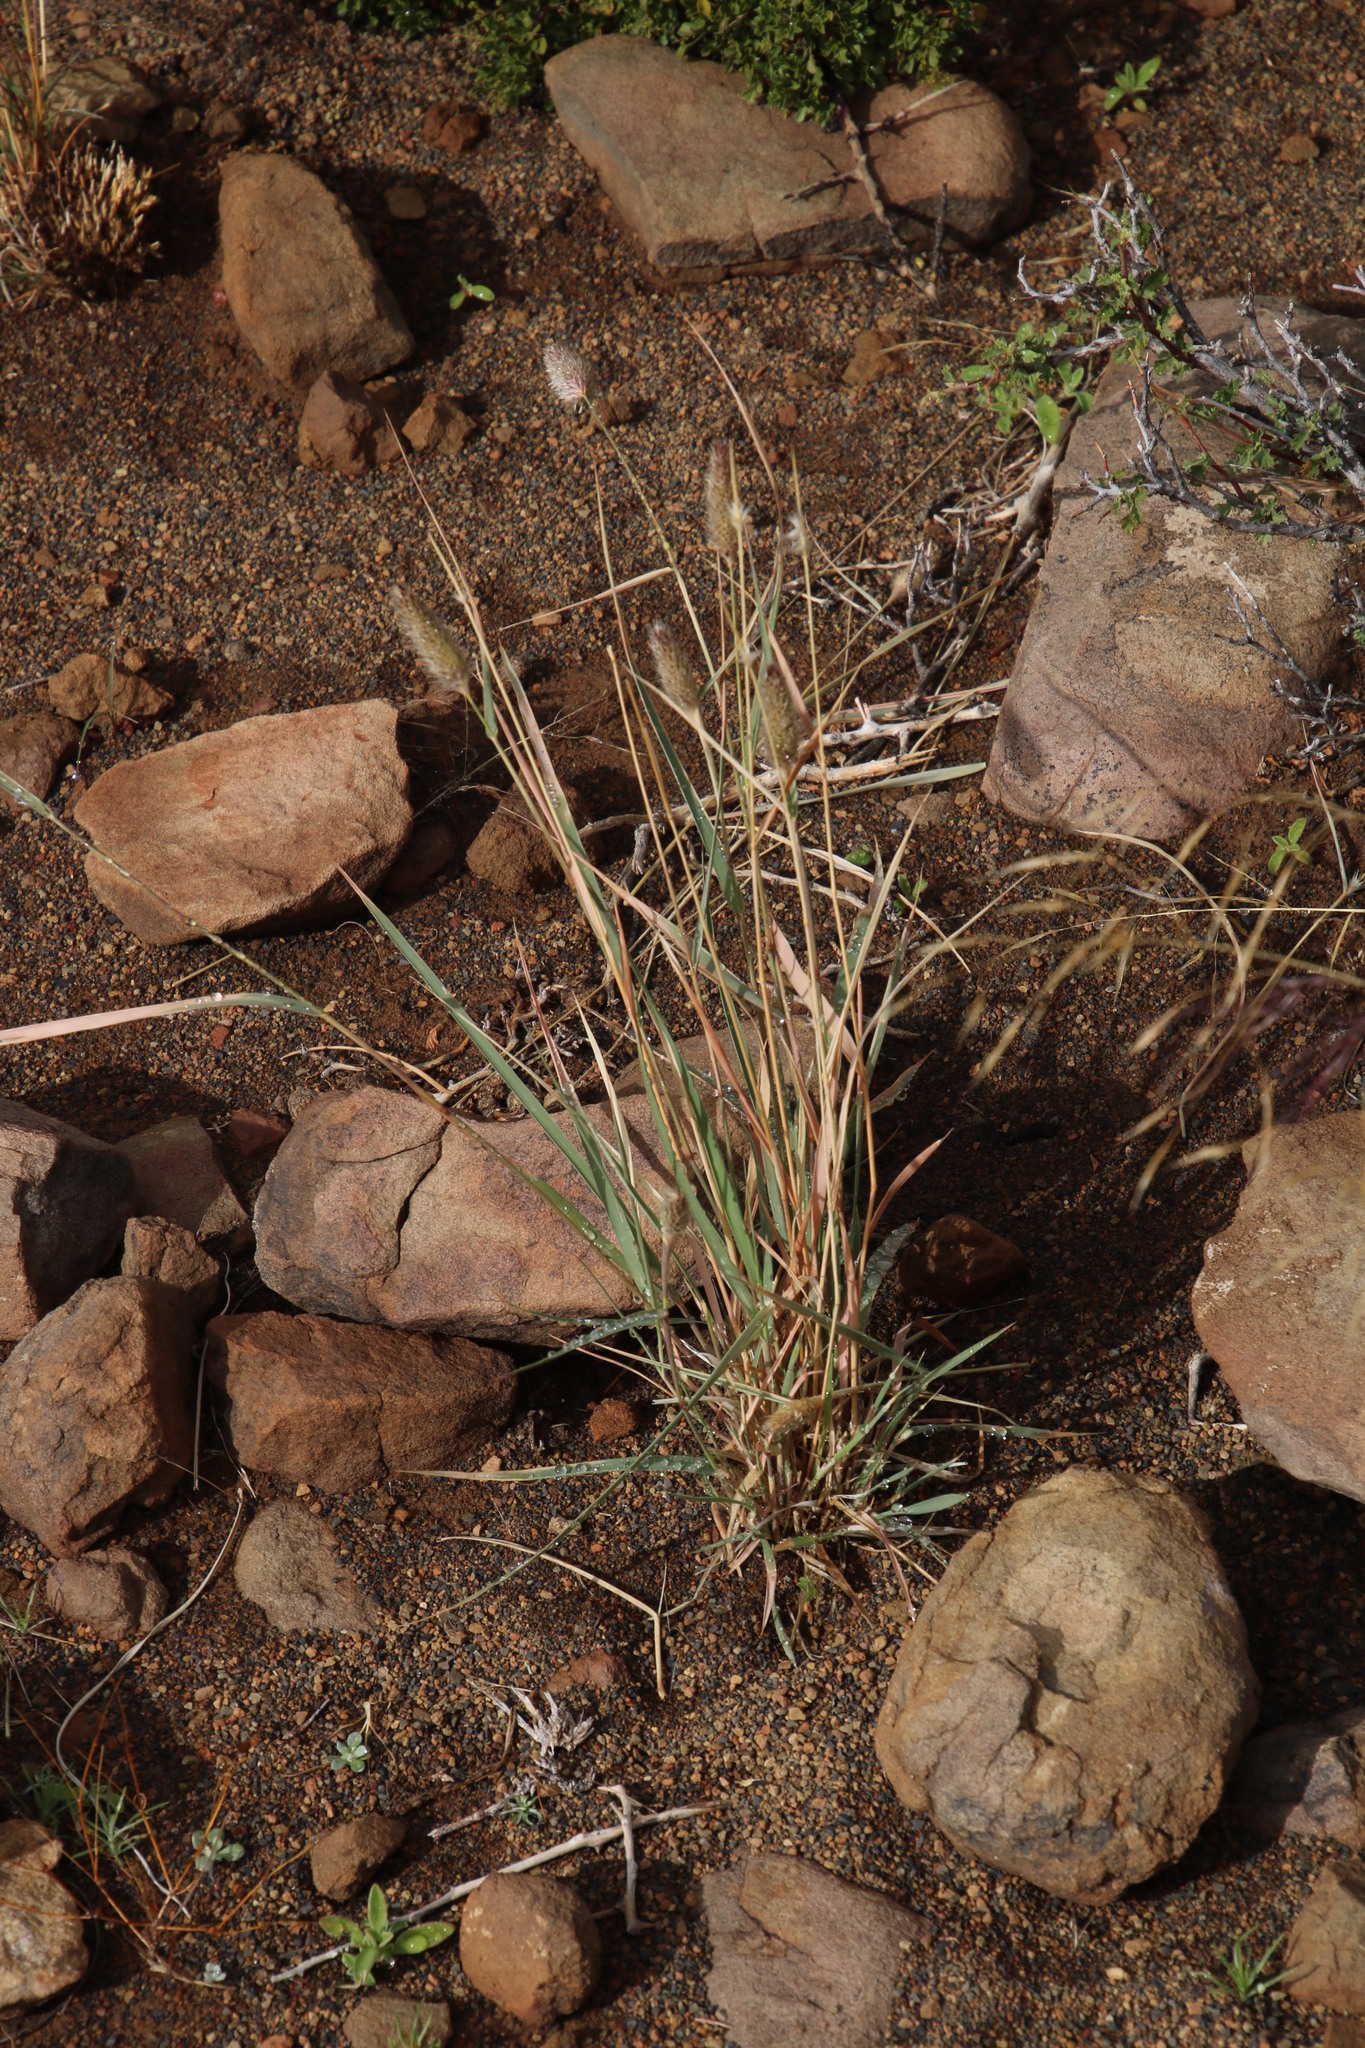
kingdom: Plantae
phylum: Tracheophyta
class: Liliopsida
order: Poales
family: Poaceae
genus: Fingerhuthia
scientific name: Fingerhuthia africana
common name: Zulu fescue
